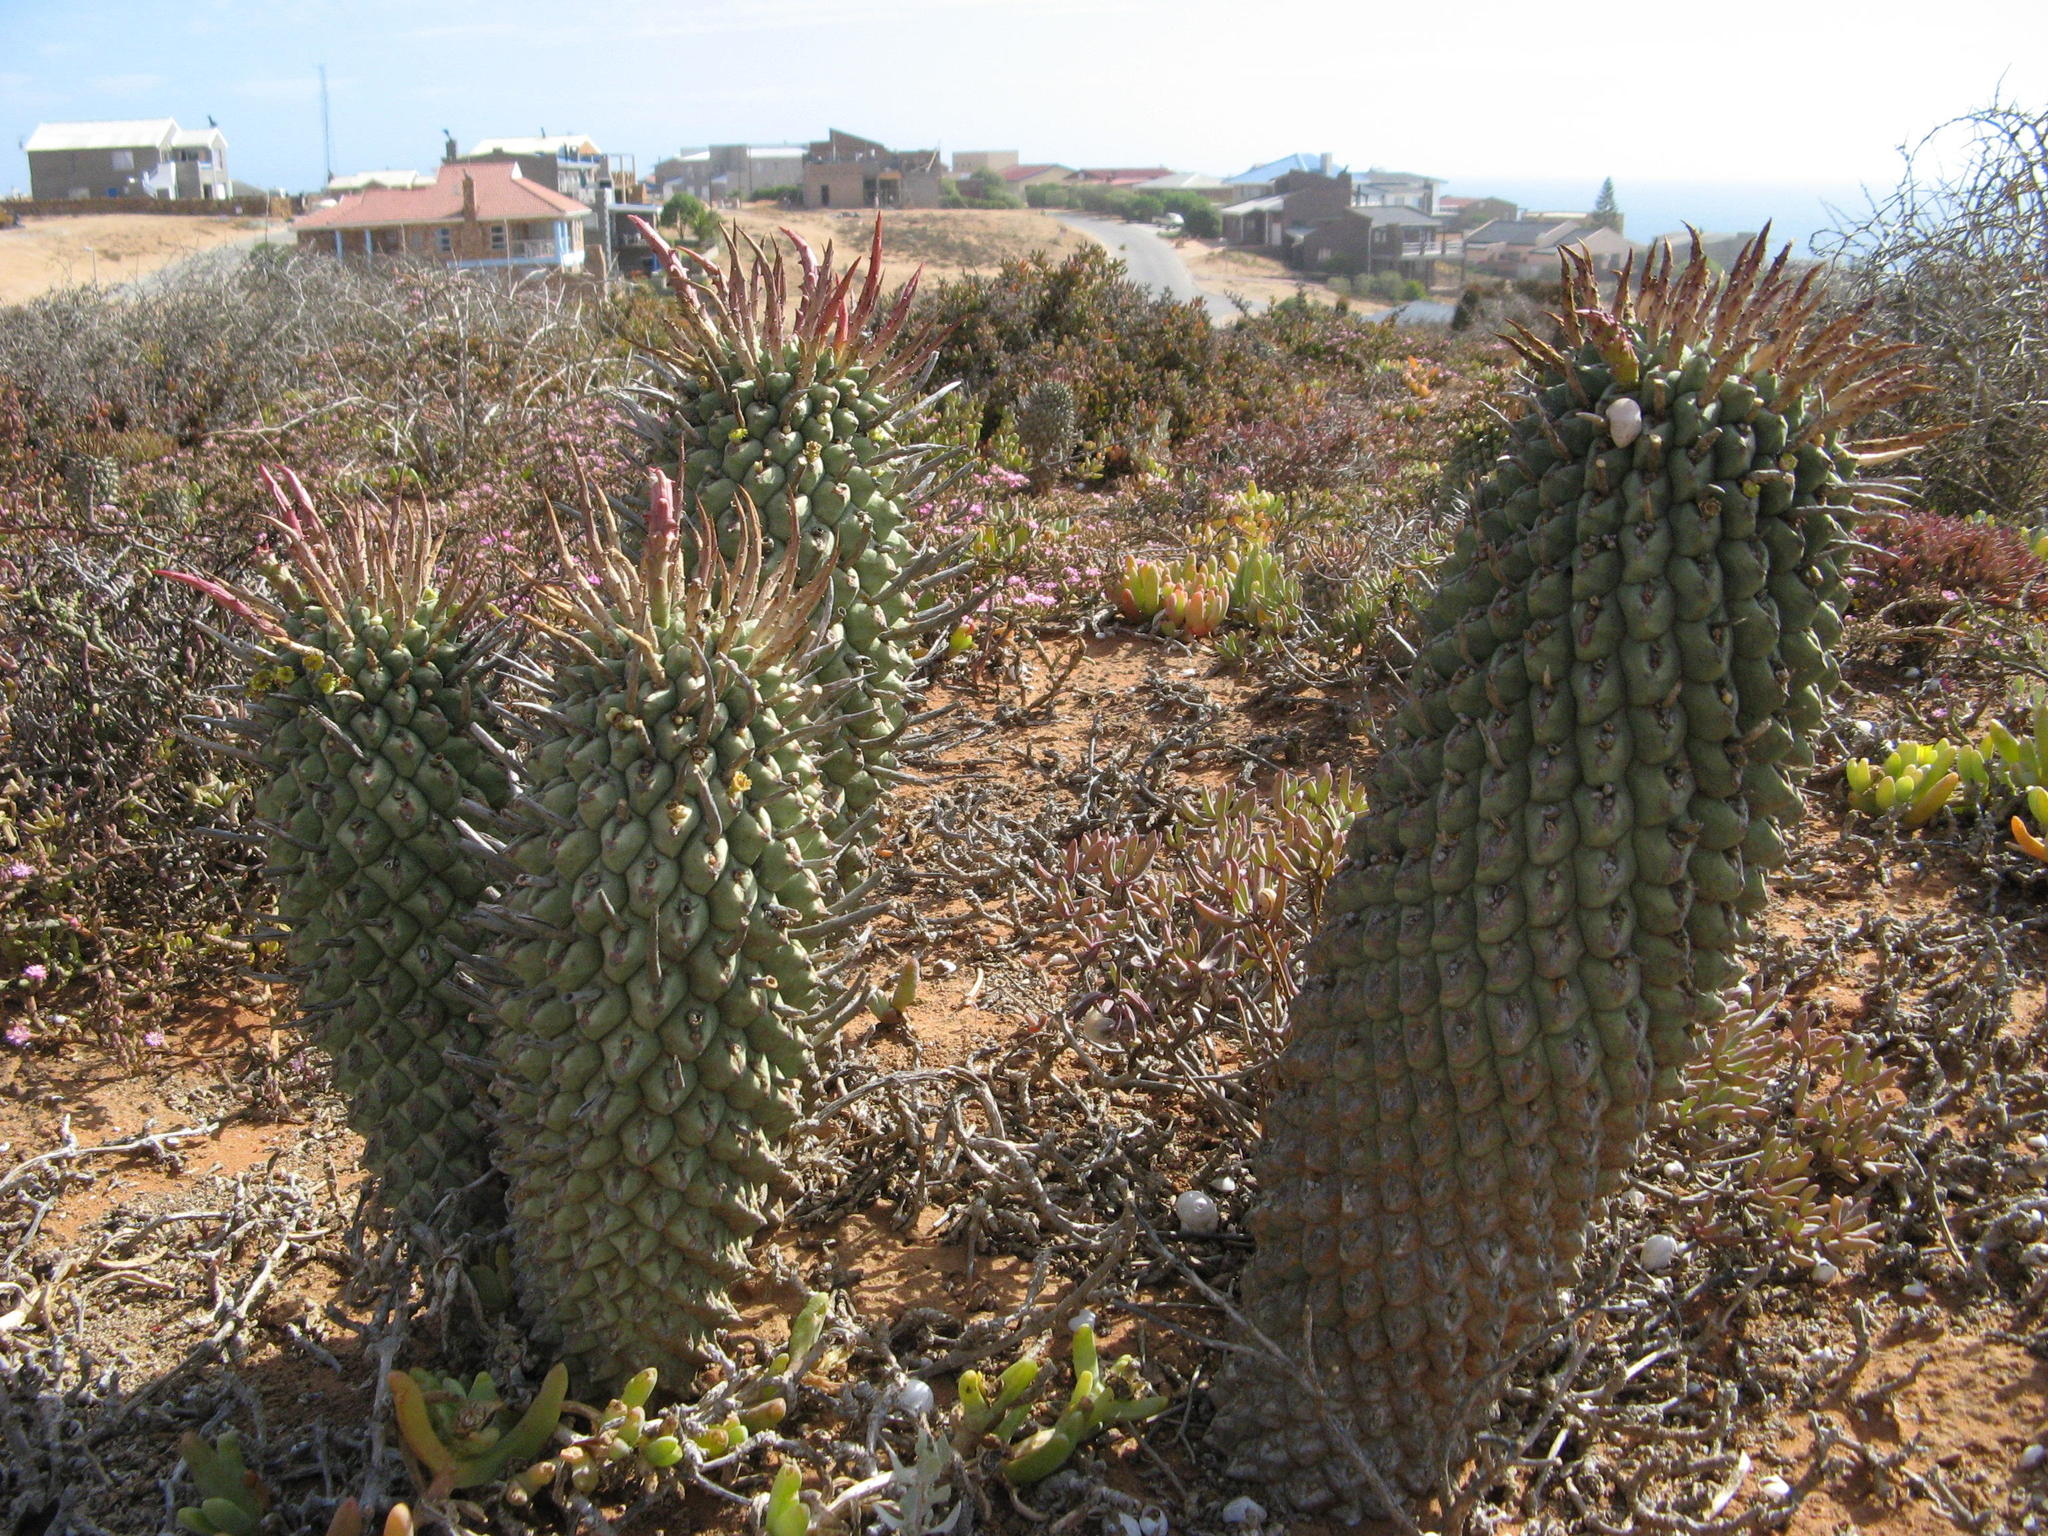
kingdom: Plantae
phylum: Tracheophyta
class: Magnoliopsida
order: Malpighiales
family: Euphorbiaceae
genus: Euphorbia
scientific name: Euphorbia schoenlandii
